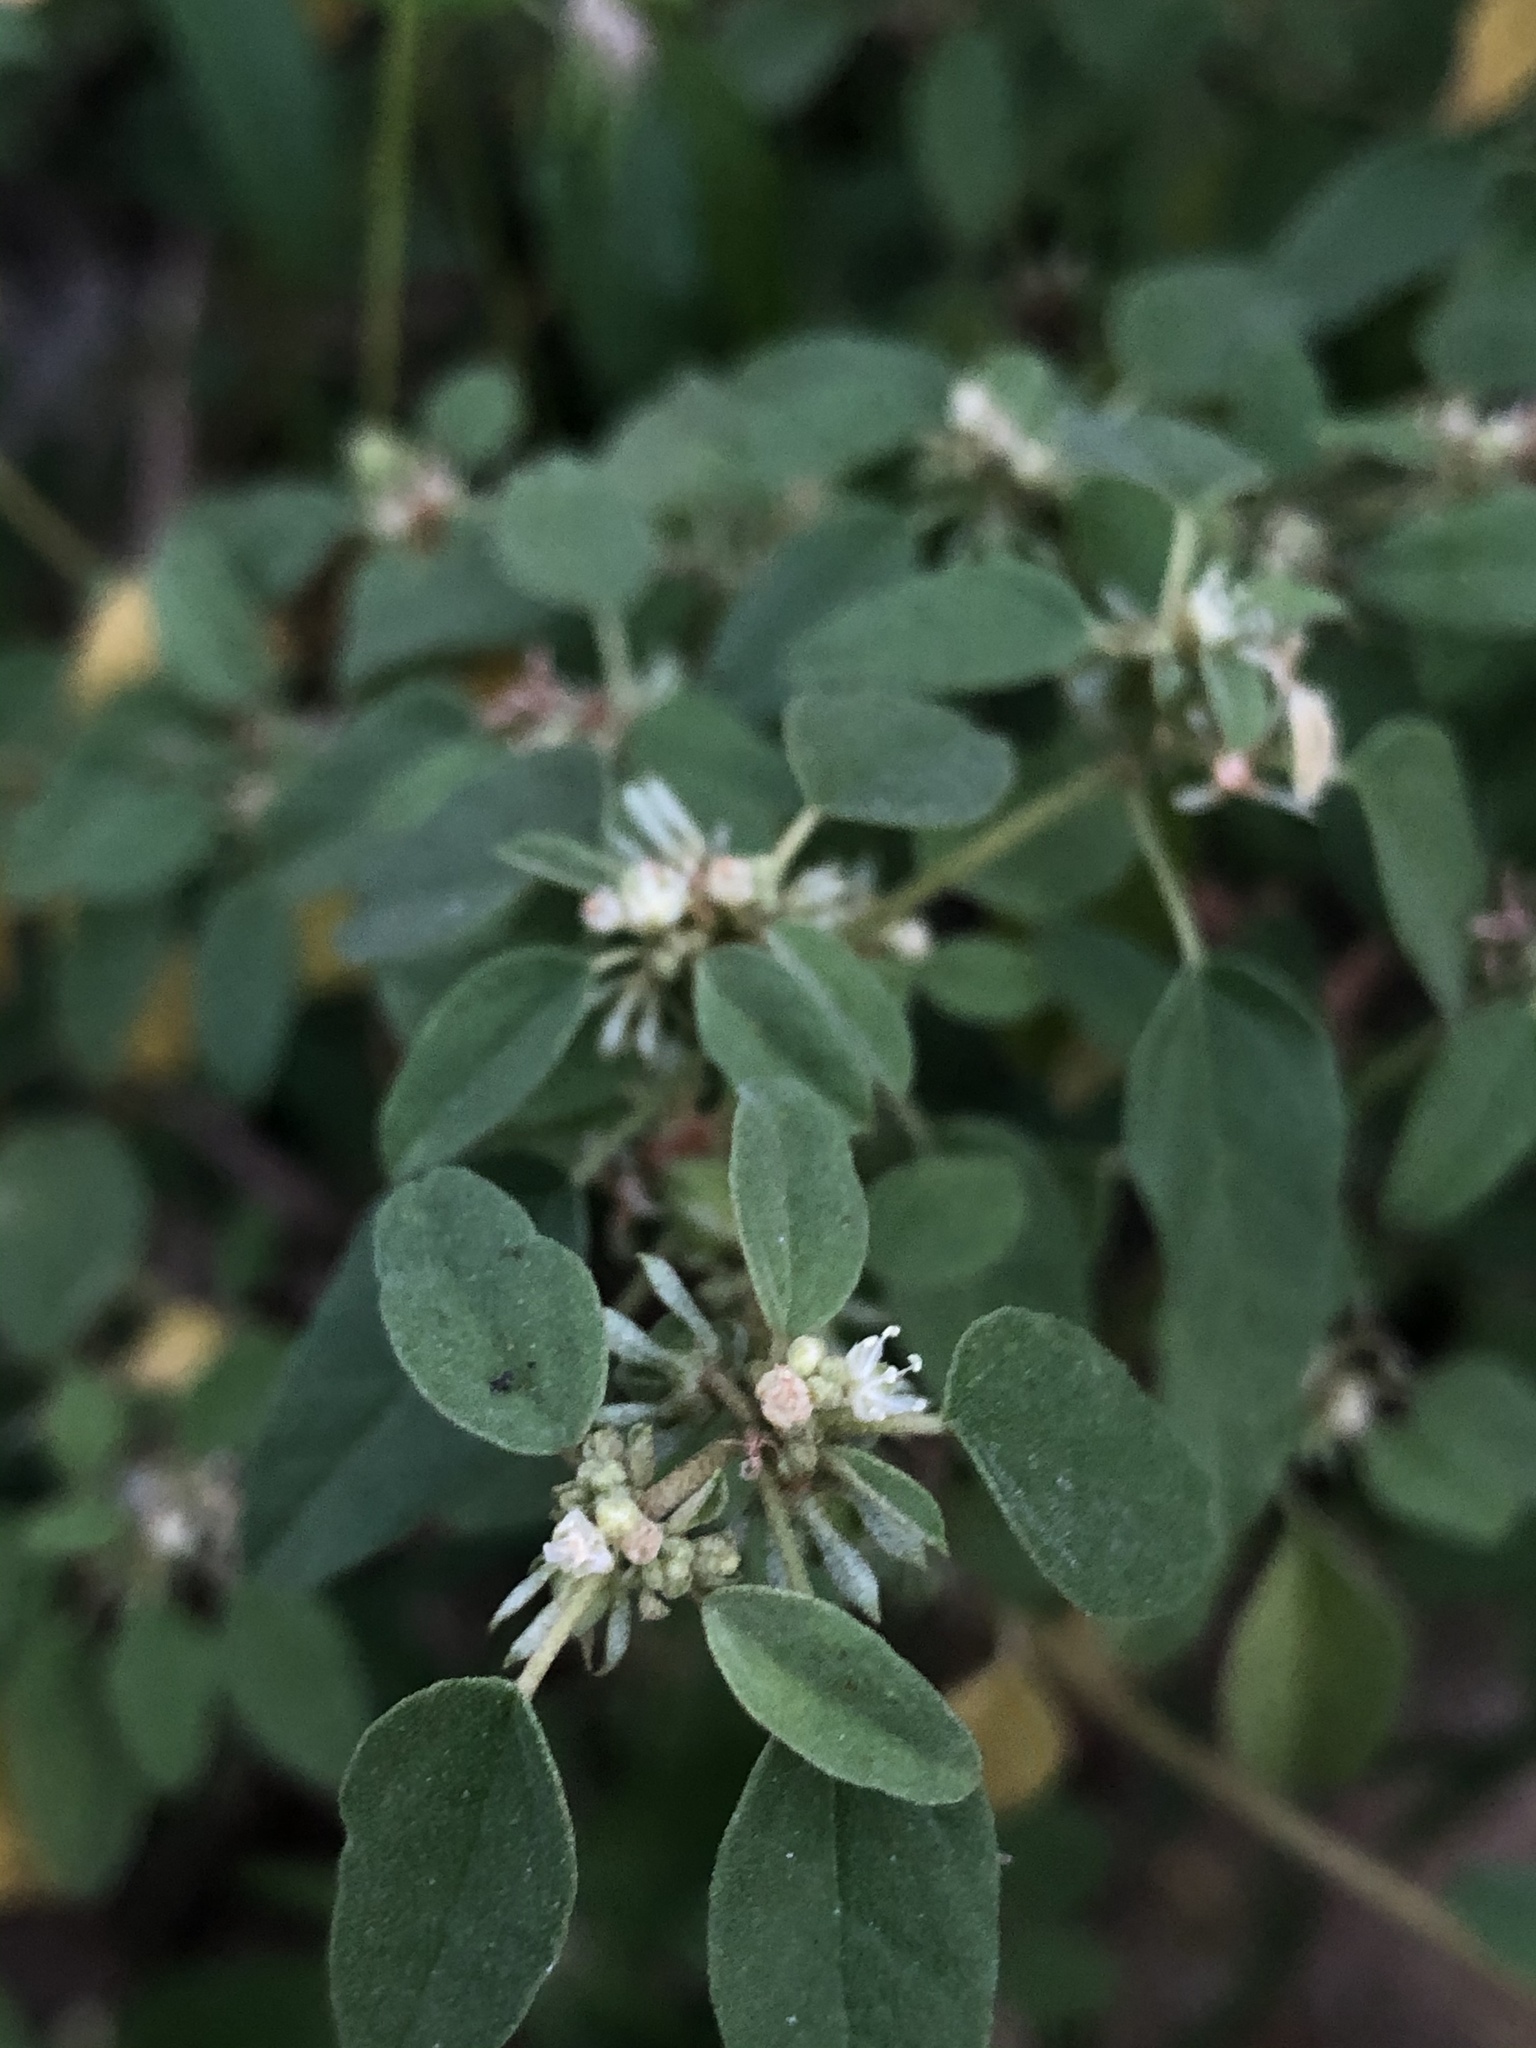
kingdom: Plantae
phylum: Tracheophyta
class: Magnoliopsida
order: Malpighiales
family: Euphorbiaceae
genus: Croton
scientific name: Croton monanthogynus
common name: One-seed croton
